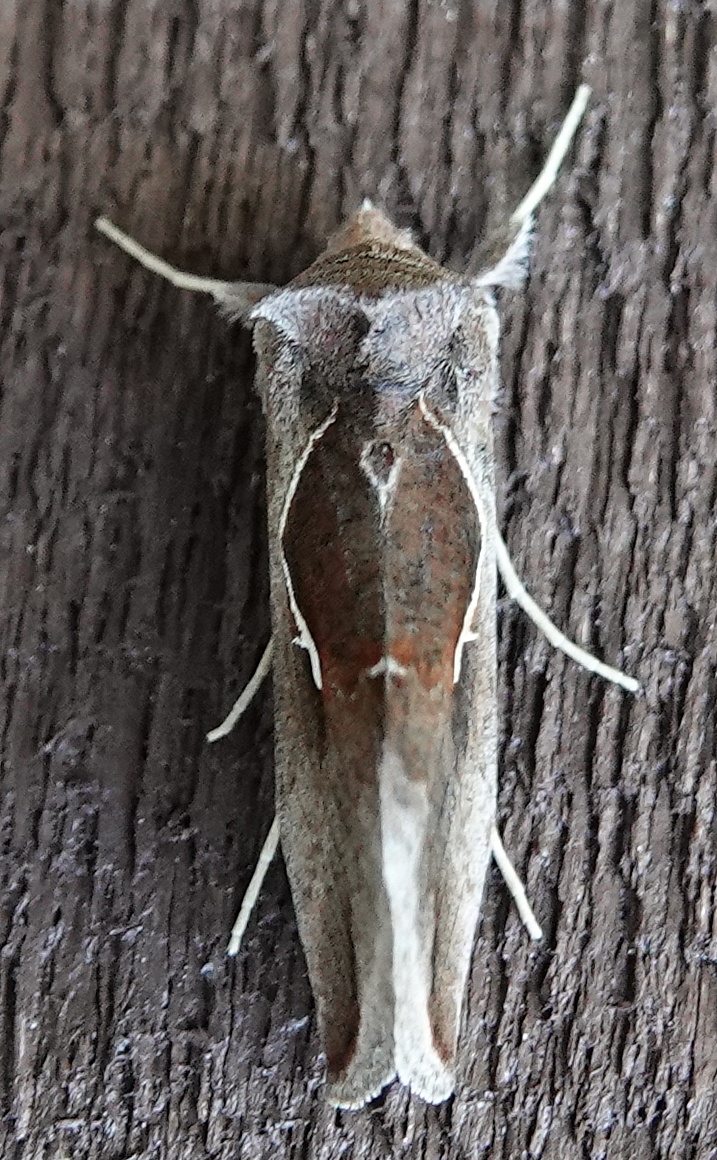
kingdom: Animalia
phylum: Arthropoda
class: Insecta
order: Lepidoptera
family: Noctuidae
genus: Anagrapha
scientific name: Anagrapha falcifera
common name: Celery looper
